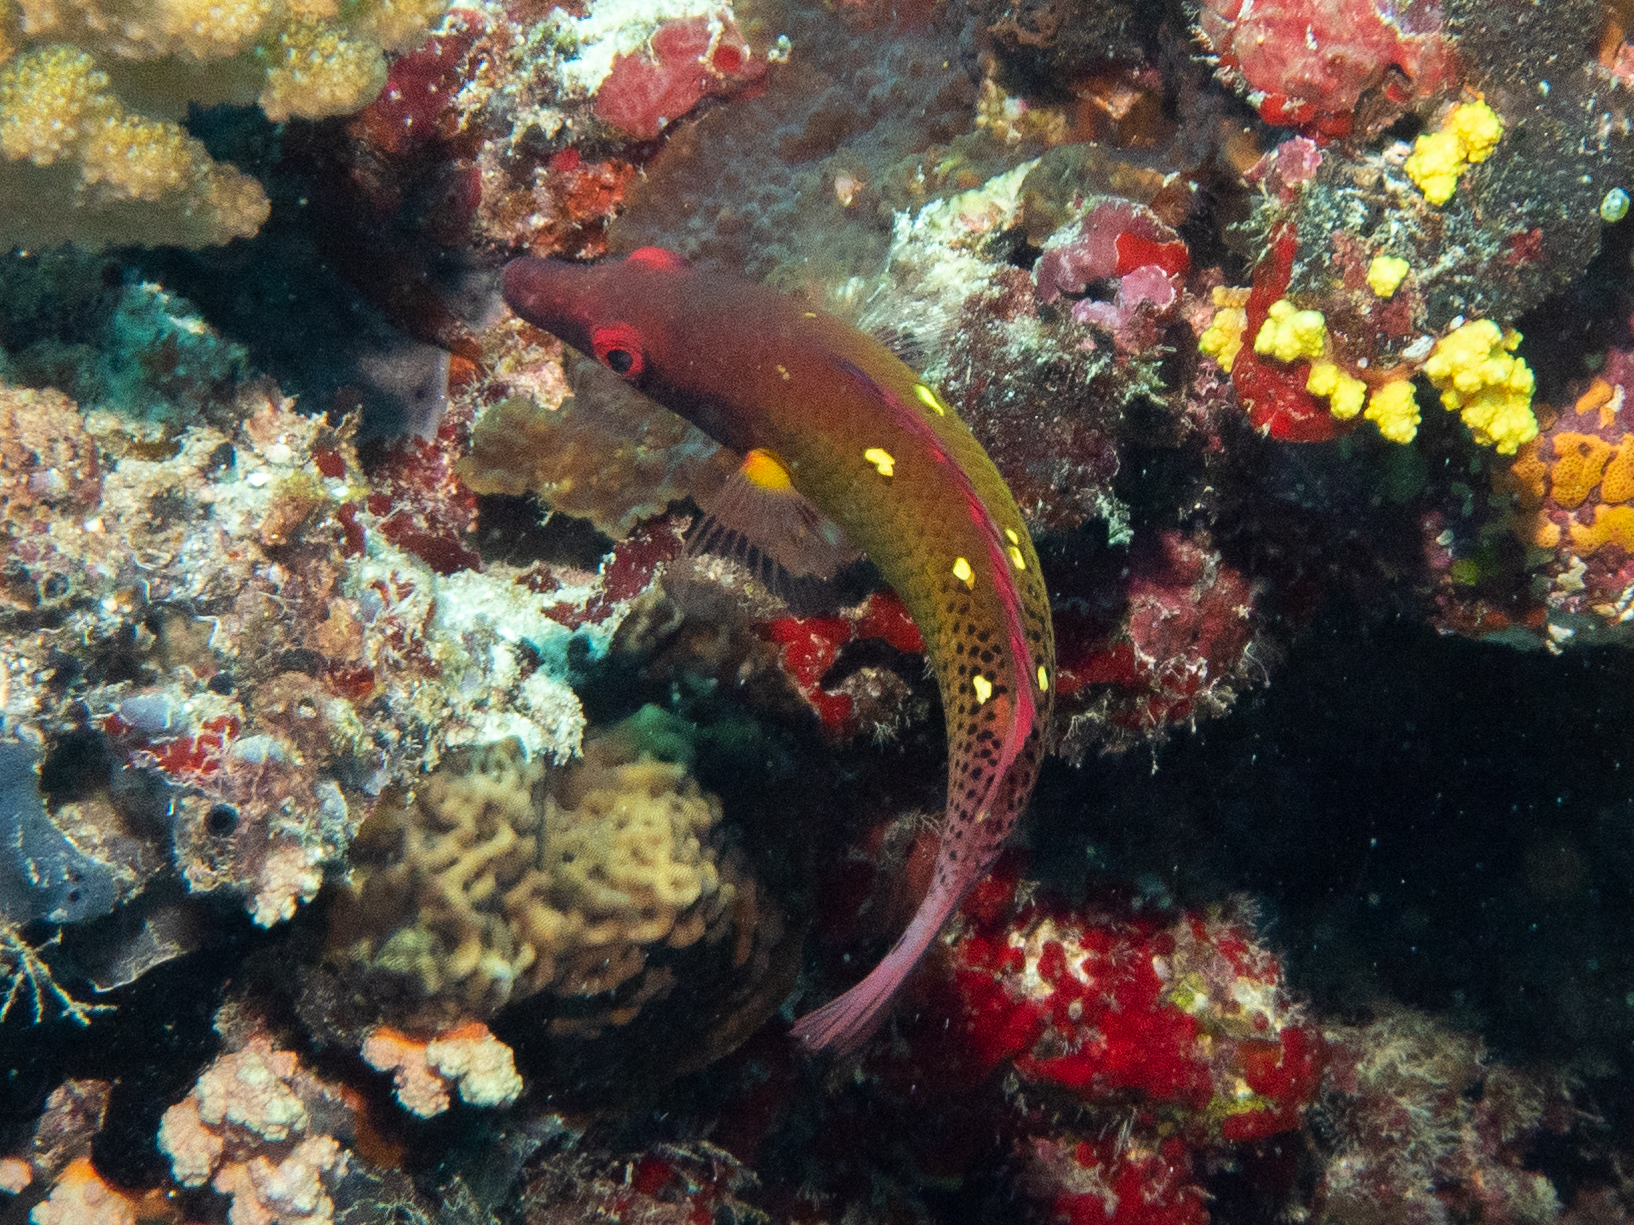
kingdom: Animalia
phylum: Chordata
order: Perciformes
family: Labridae
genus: Bodianus
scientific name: Bodianus diana
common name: Diana's hogfish
